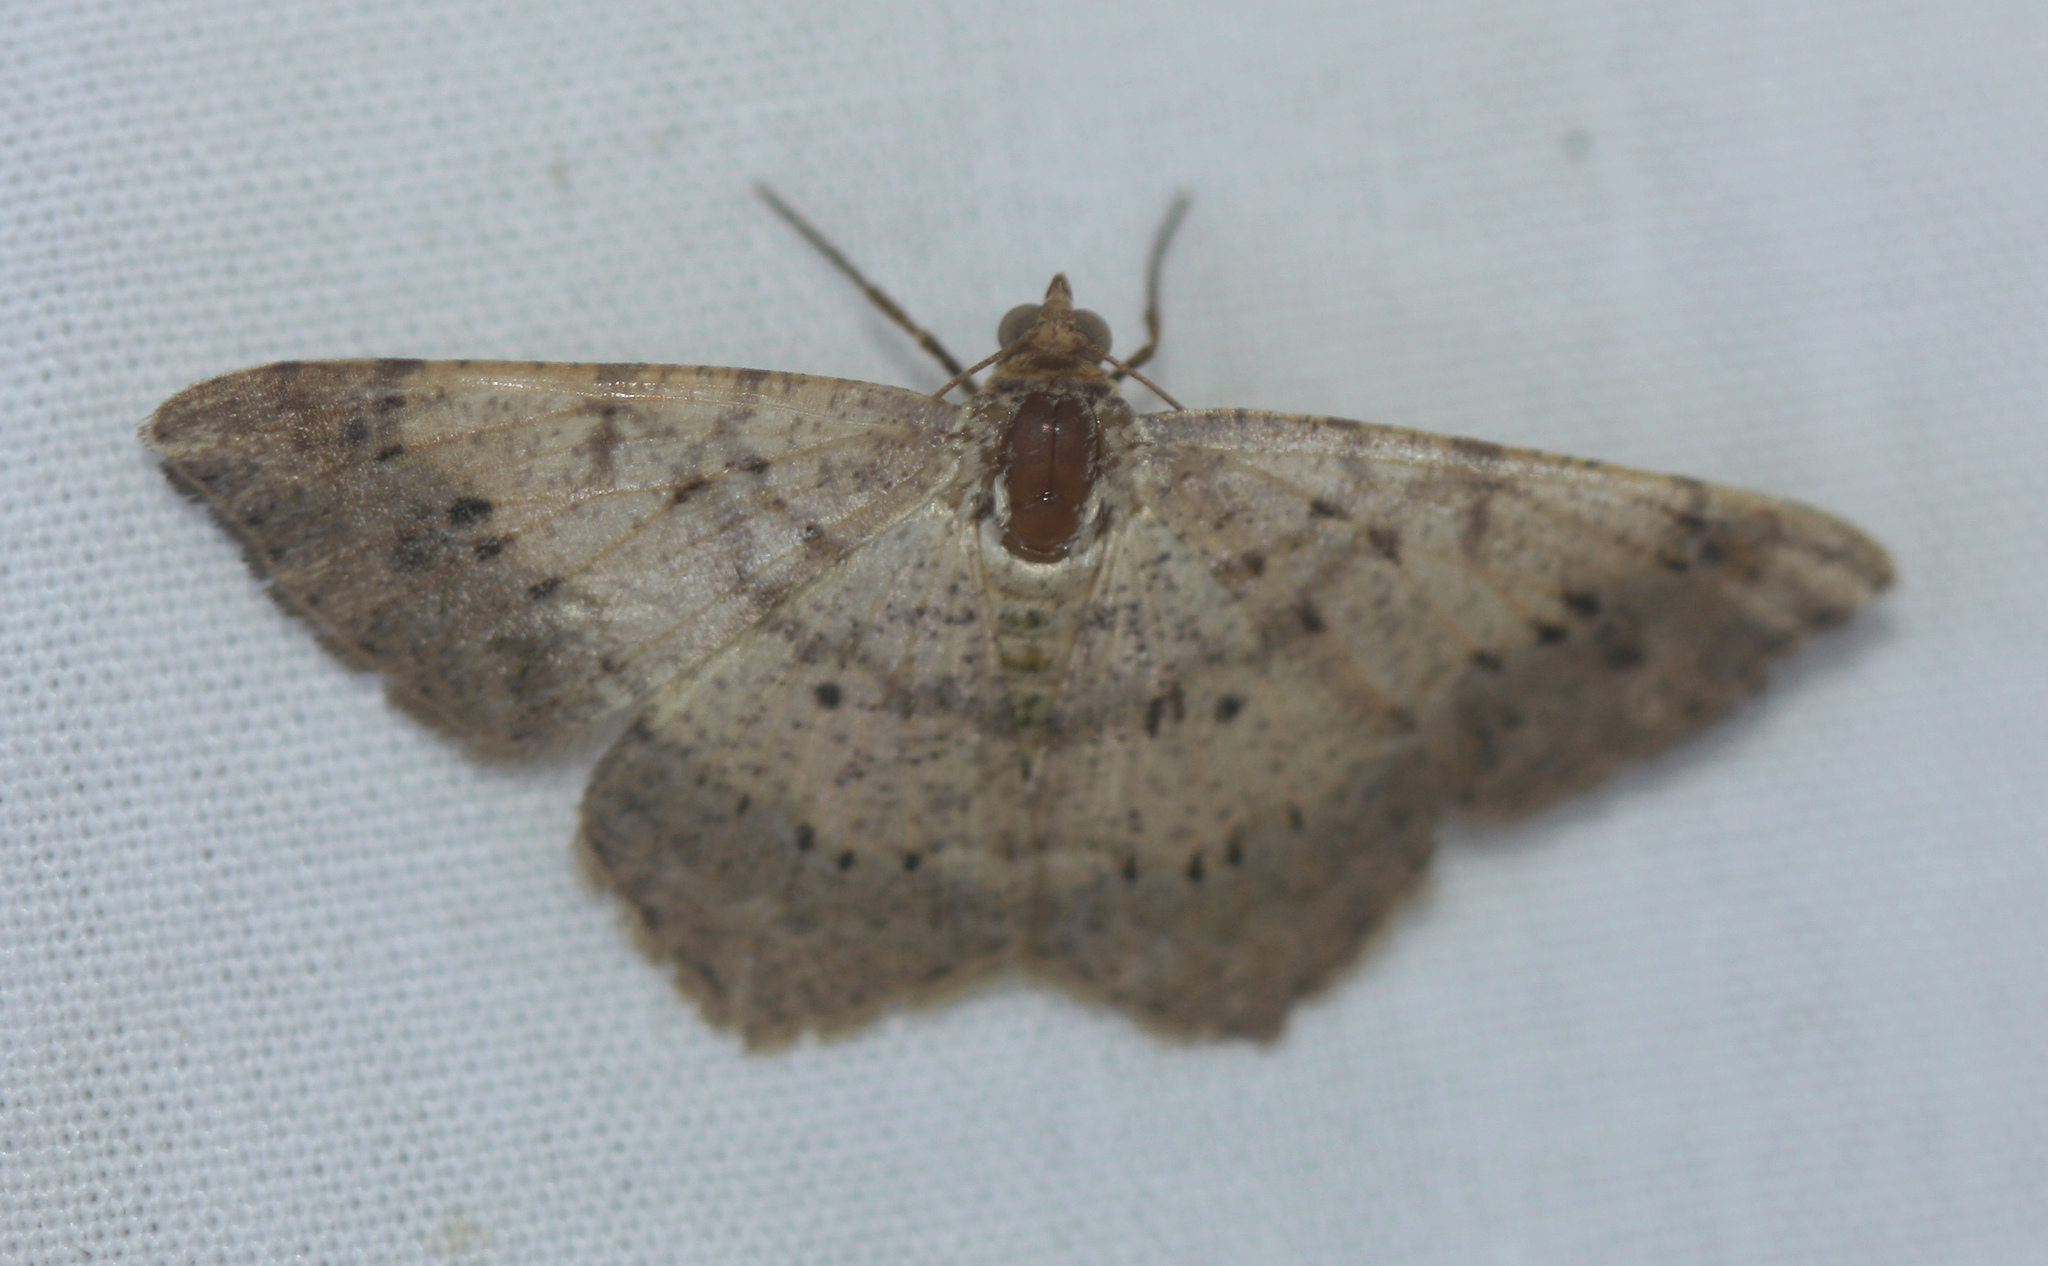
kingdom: Animalia
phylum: Arthropoda
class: Insecta
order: Lepidoptera
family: Geometridae
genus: Macaria
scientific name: Macaria abydata
